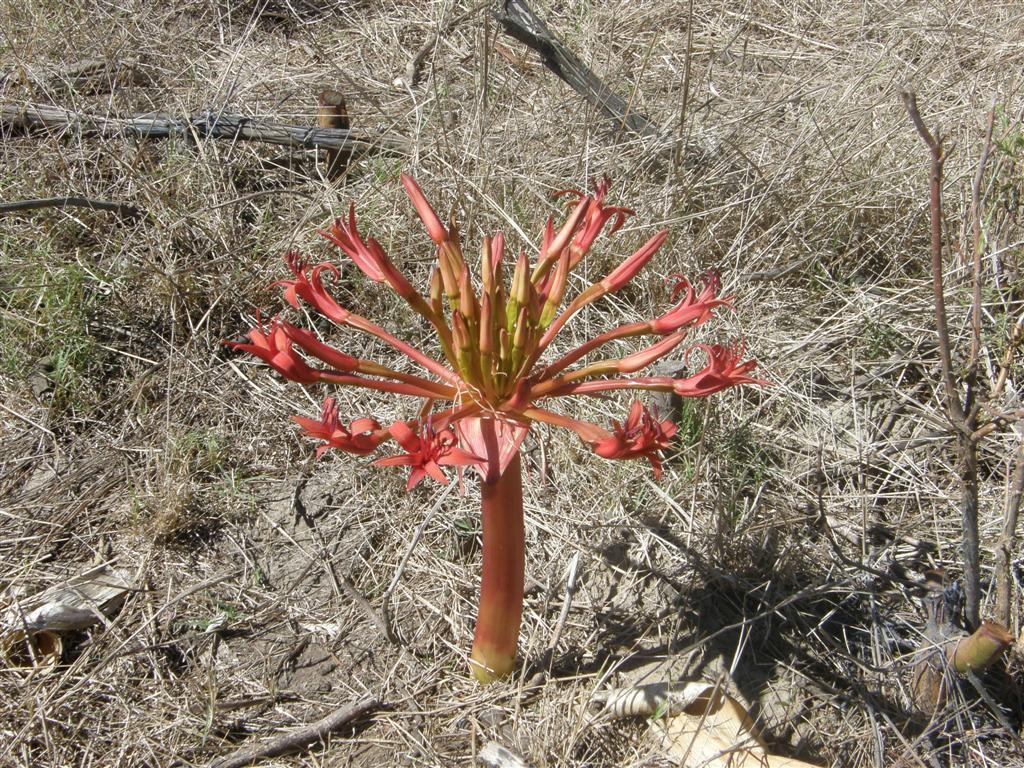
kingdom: Plantae
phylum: Tracheophyta
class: Liliopsida
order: Asparagales
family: Amaryllidaceae
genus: Brunsvigia
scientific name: Brunsvigia orientalis
